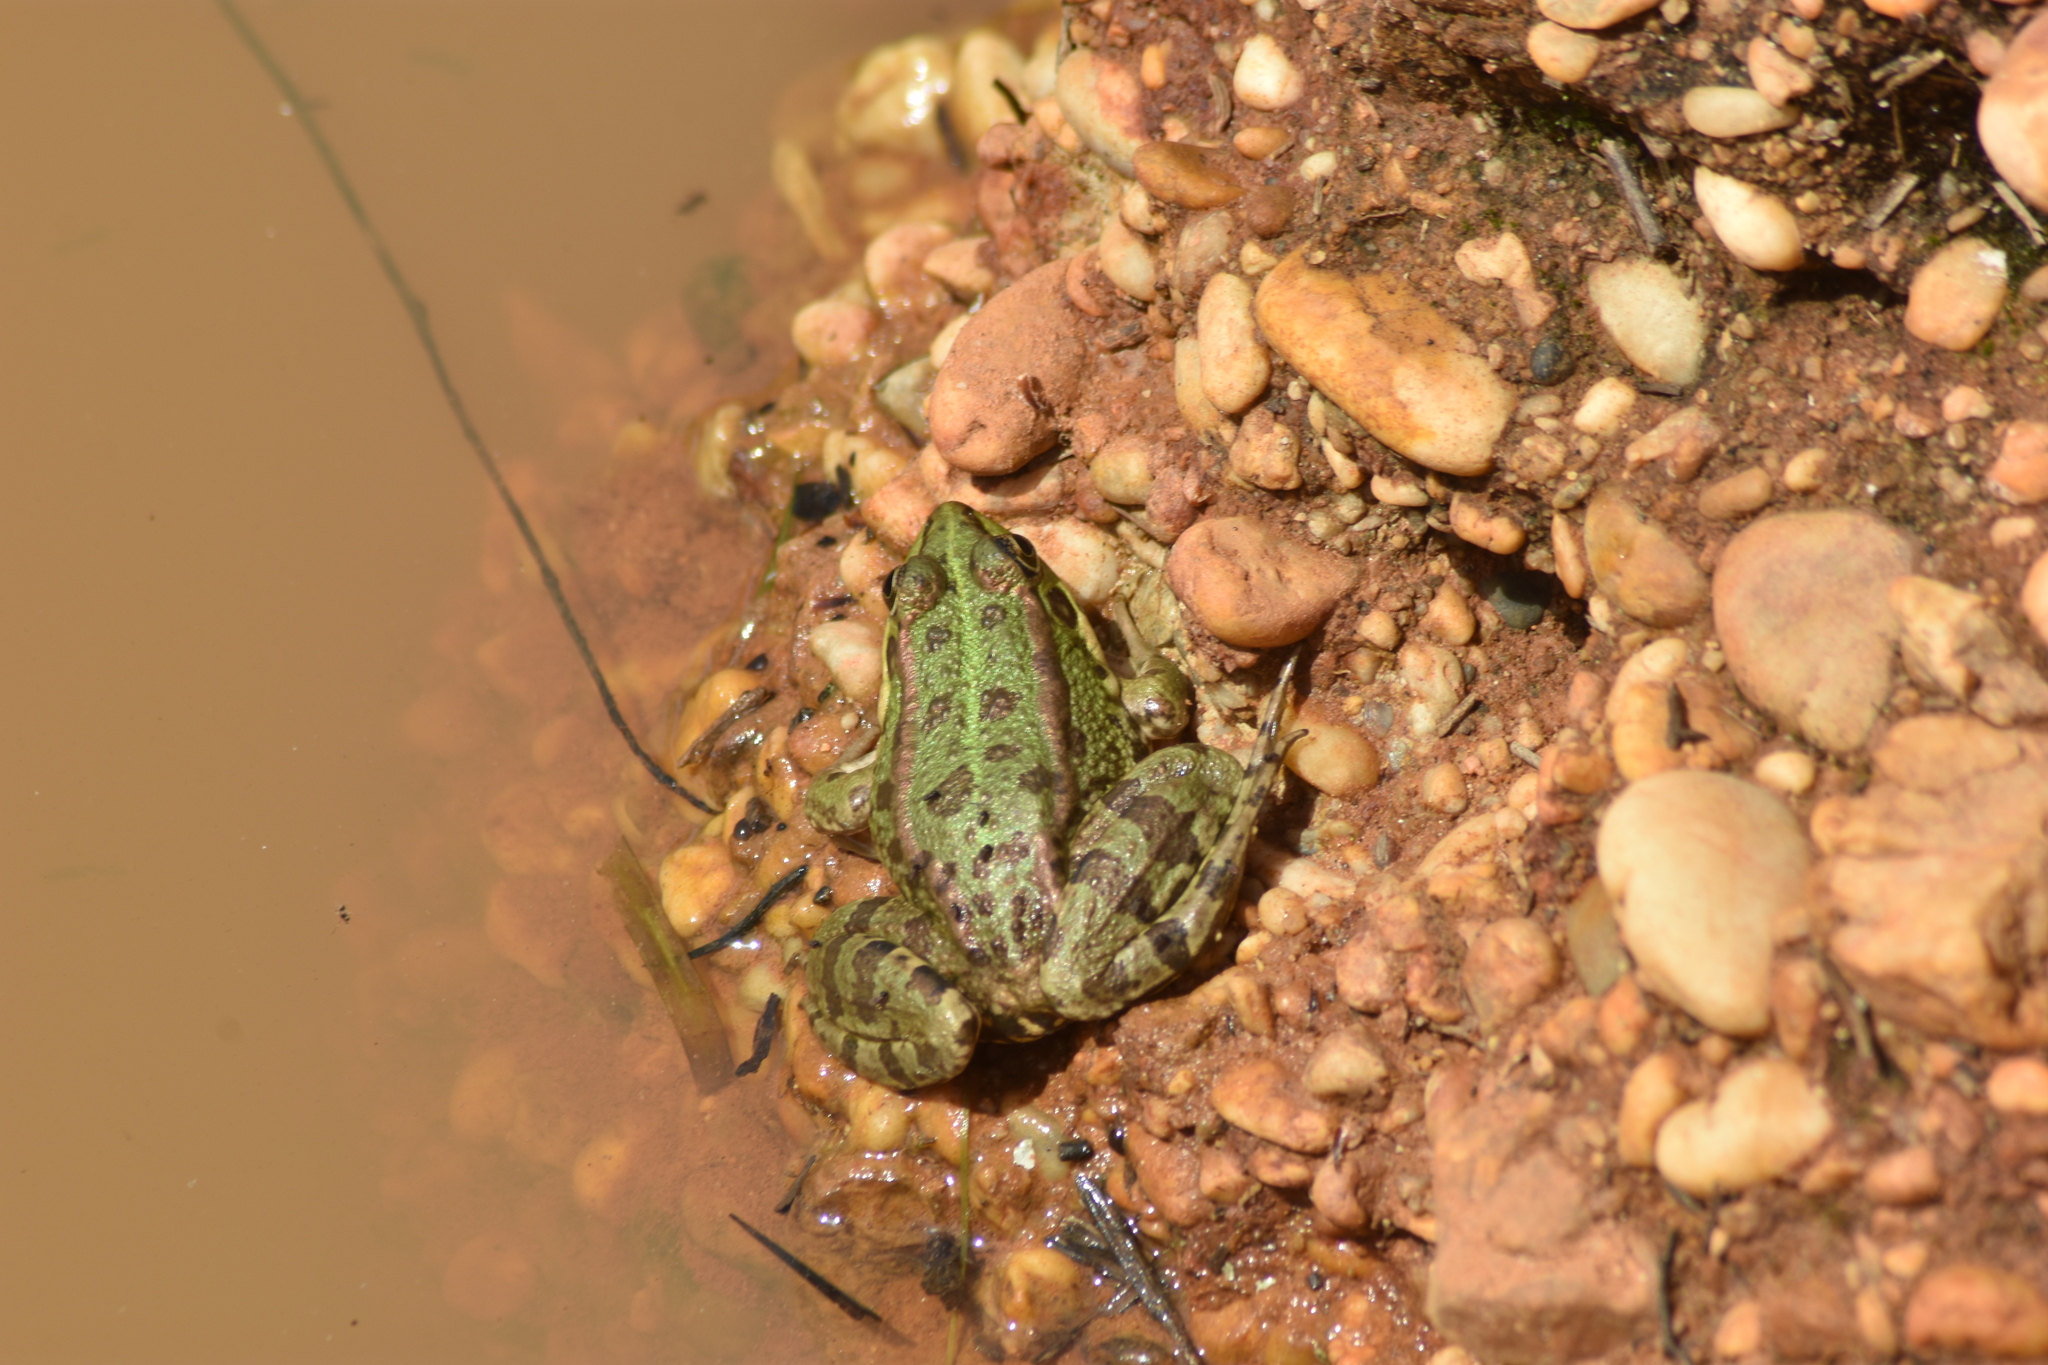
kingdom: Animalia
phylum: Chordata
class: Amphibia
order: Anura
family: Ranidae
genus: Pelophylax
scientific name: Pelophylax perezi
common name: Perez's frog
